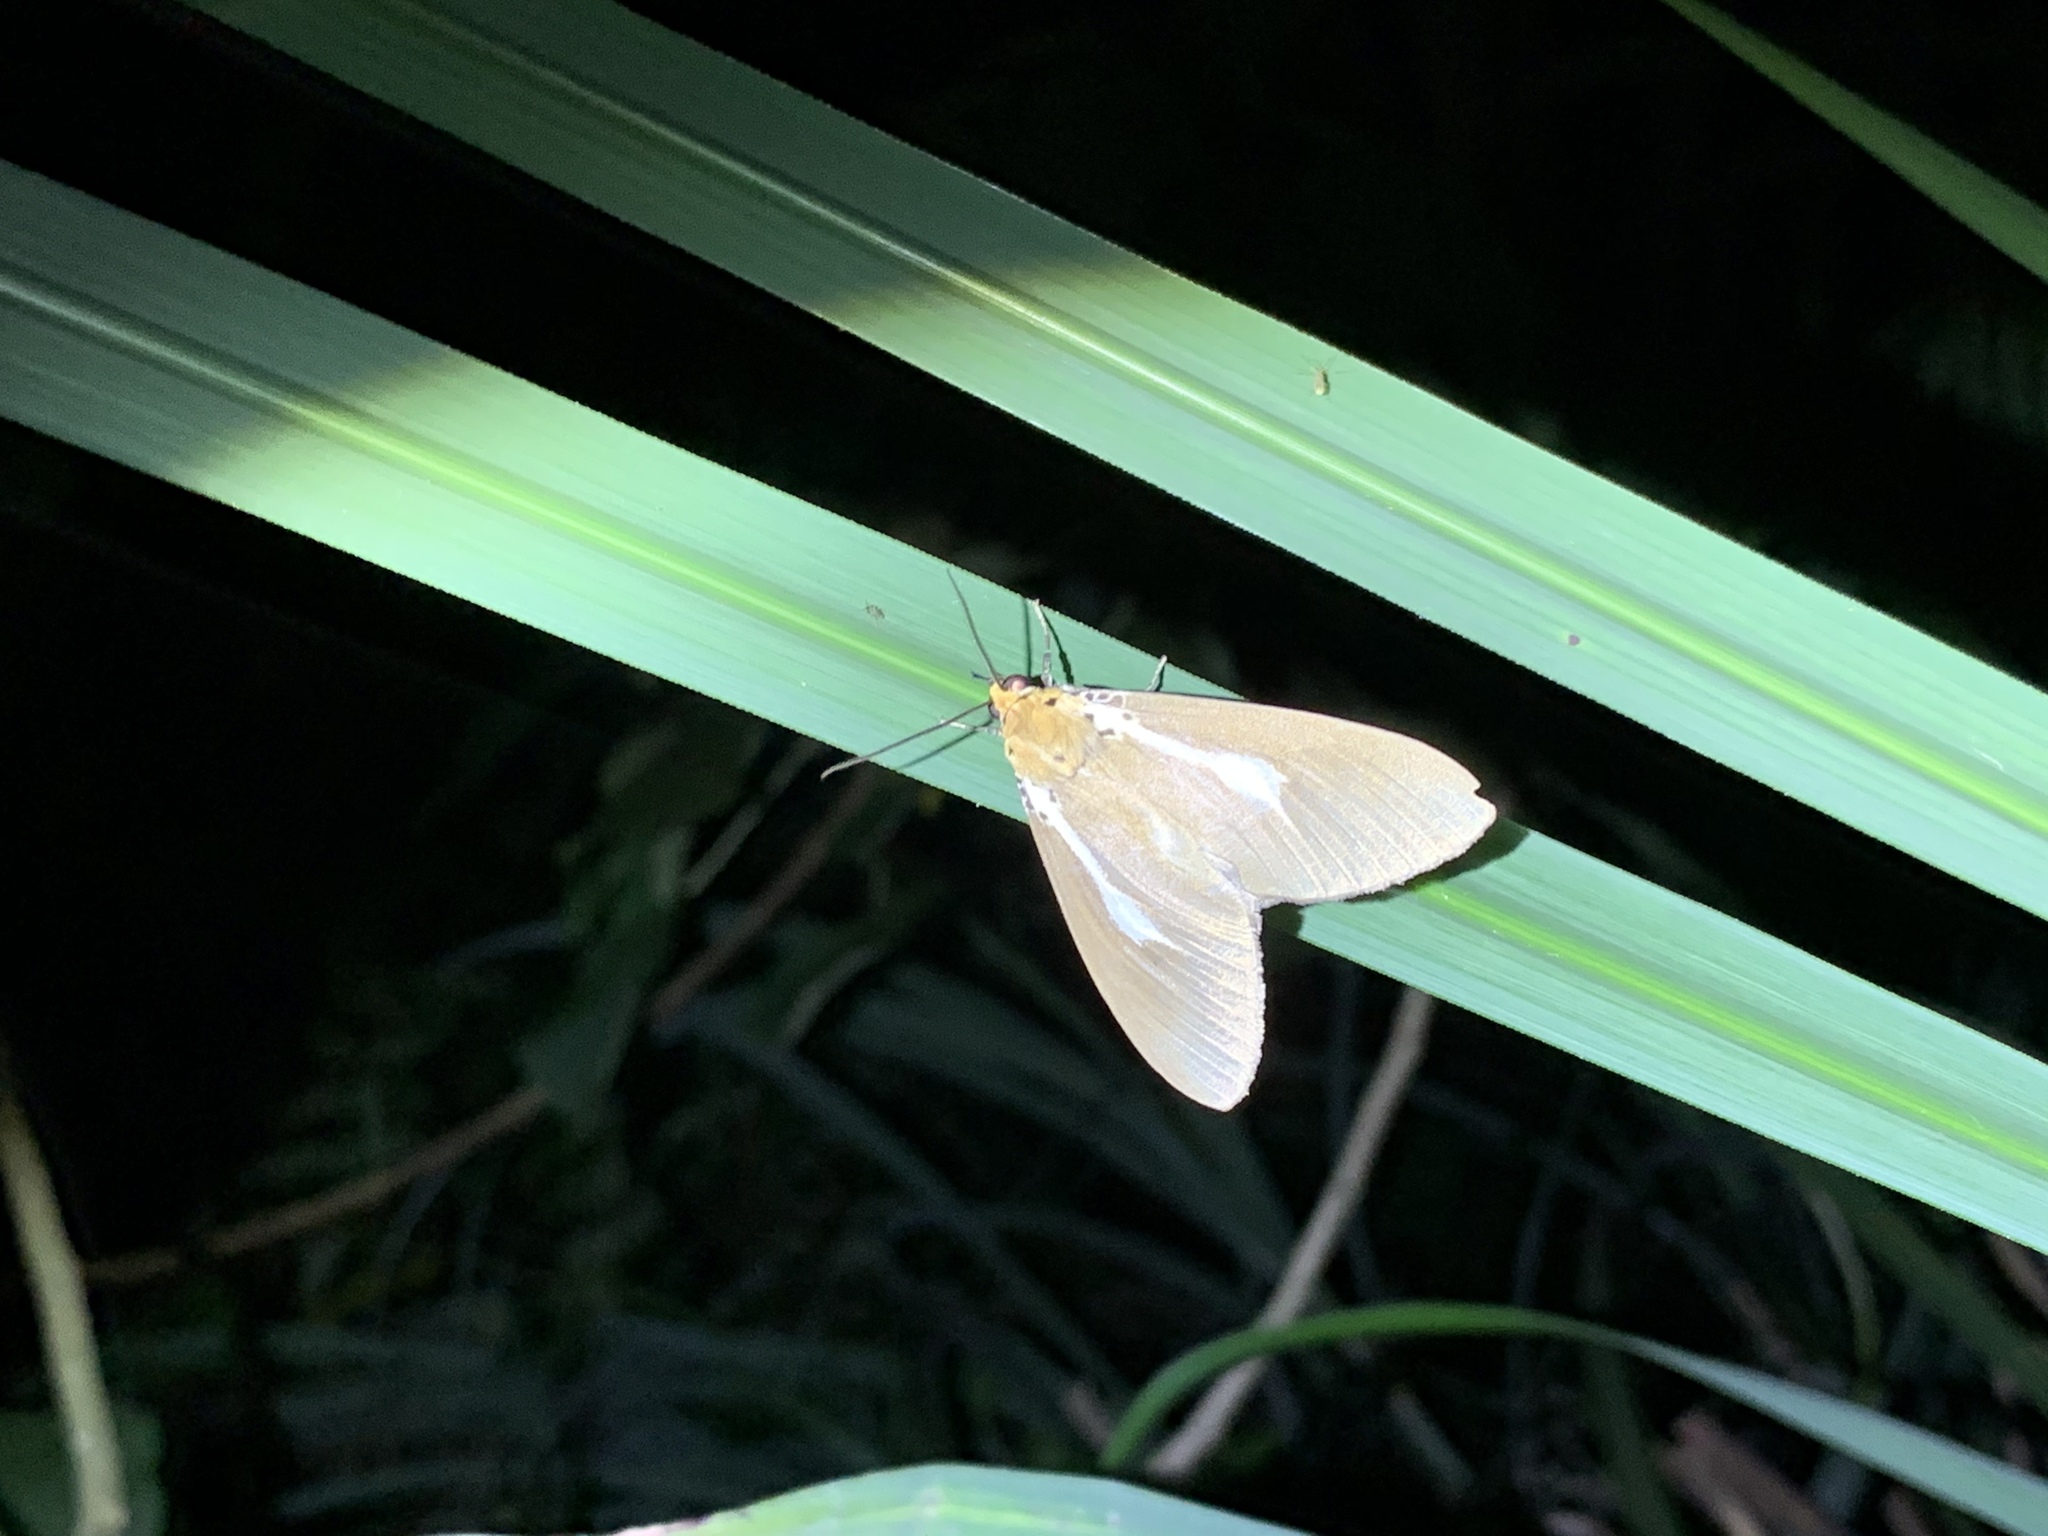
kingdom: Animalia
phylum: Arthropoda
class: Insecta
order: Lepidoptera
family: Erebidae
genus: Asota
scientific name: Asota heliconia
